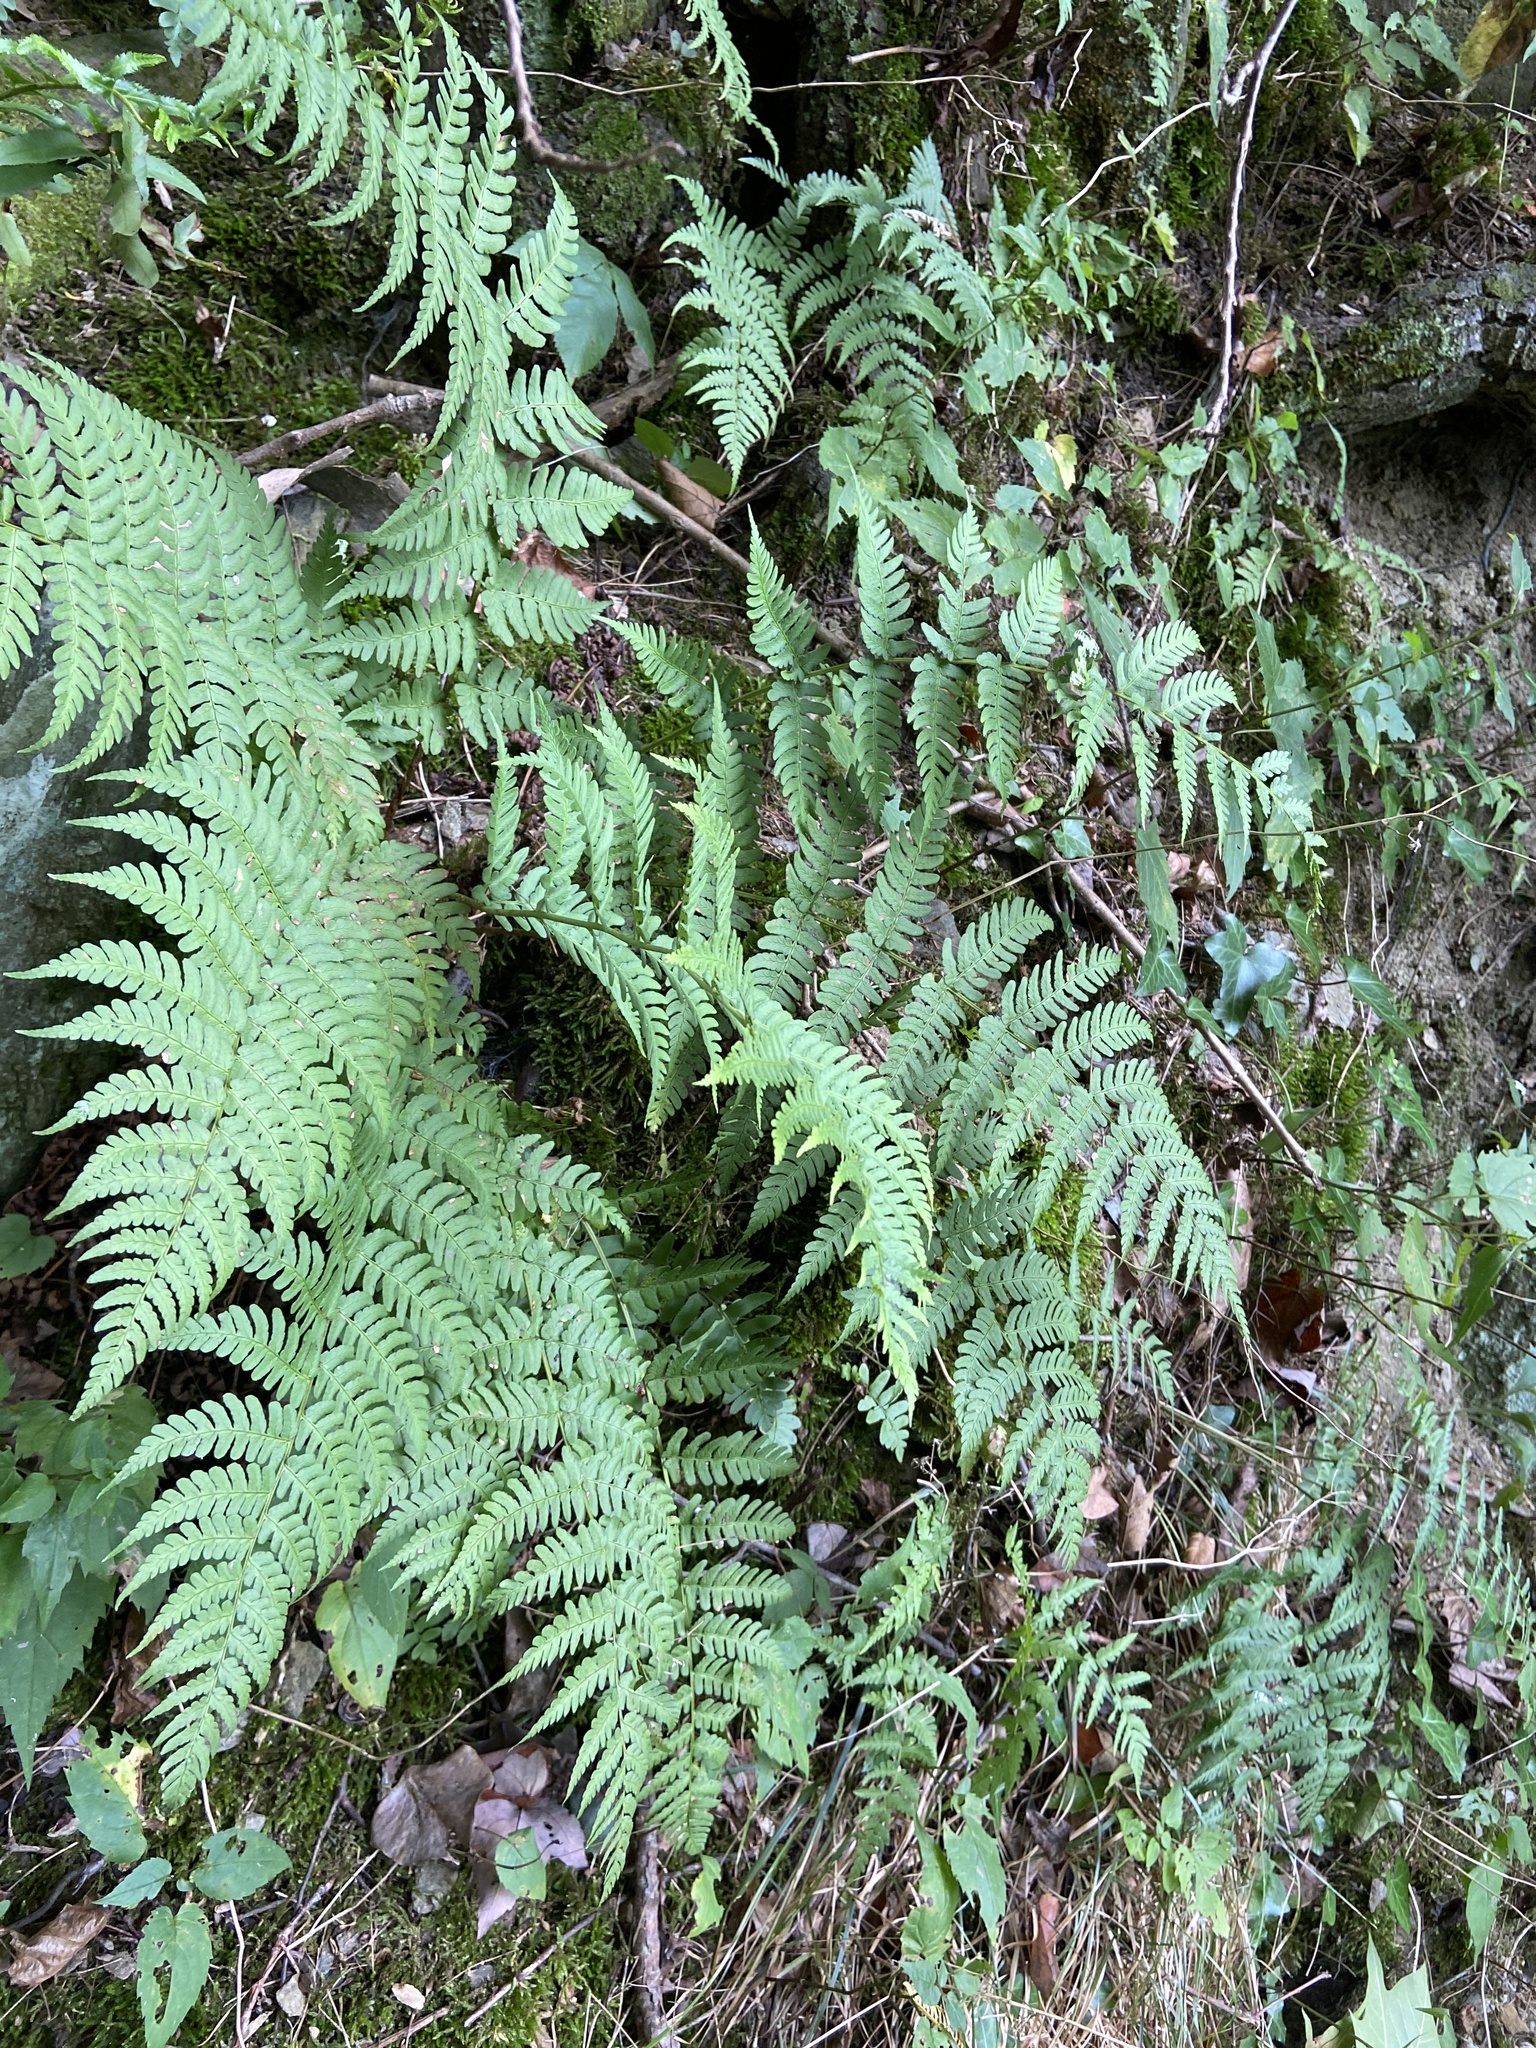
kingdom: Plantae
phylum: Tracheophyta
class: Polypodiopsida
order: Polypodiales
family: Dryopteridaceae
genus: Dryopteris
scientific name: Dryopteris marginalis
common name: Marginal wood fern
